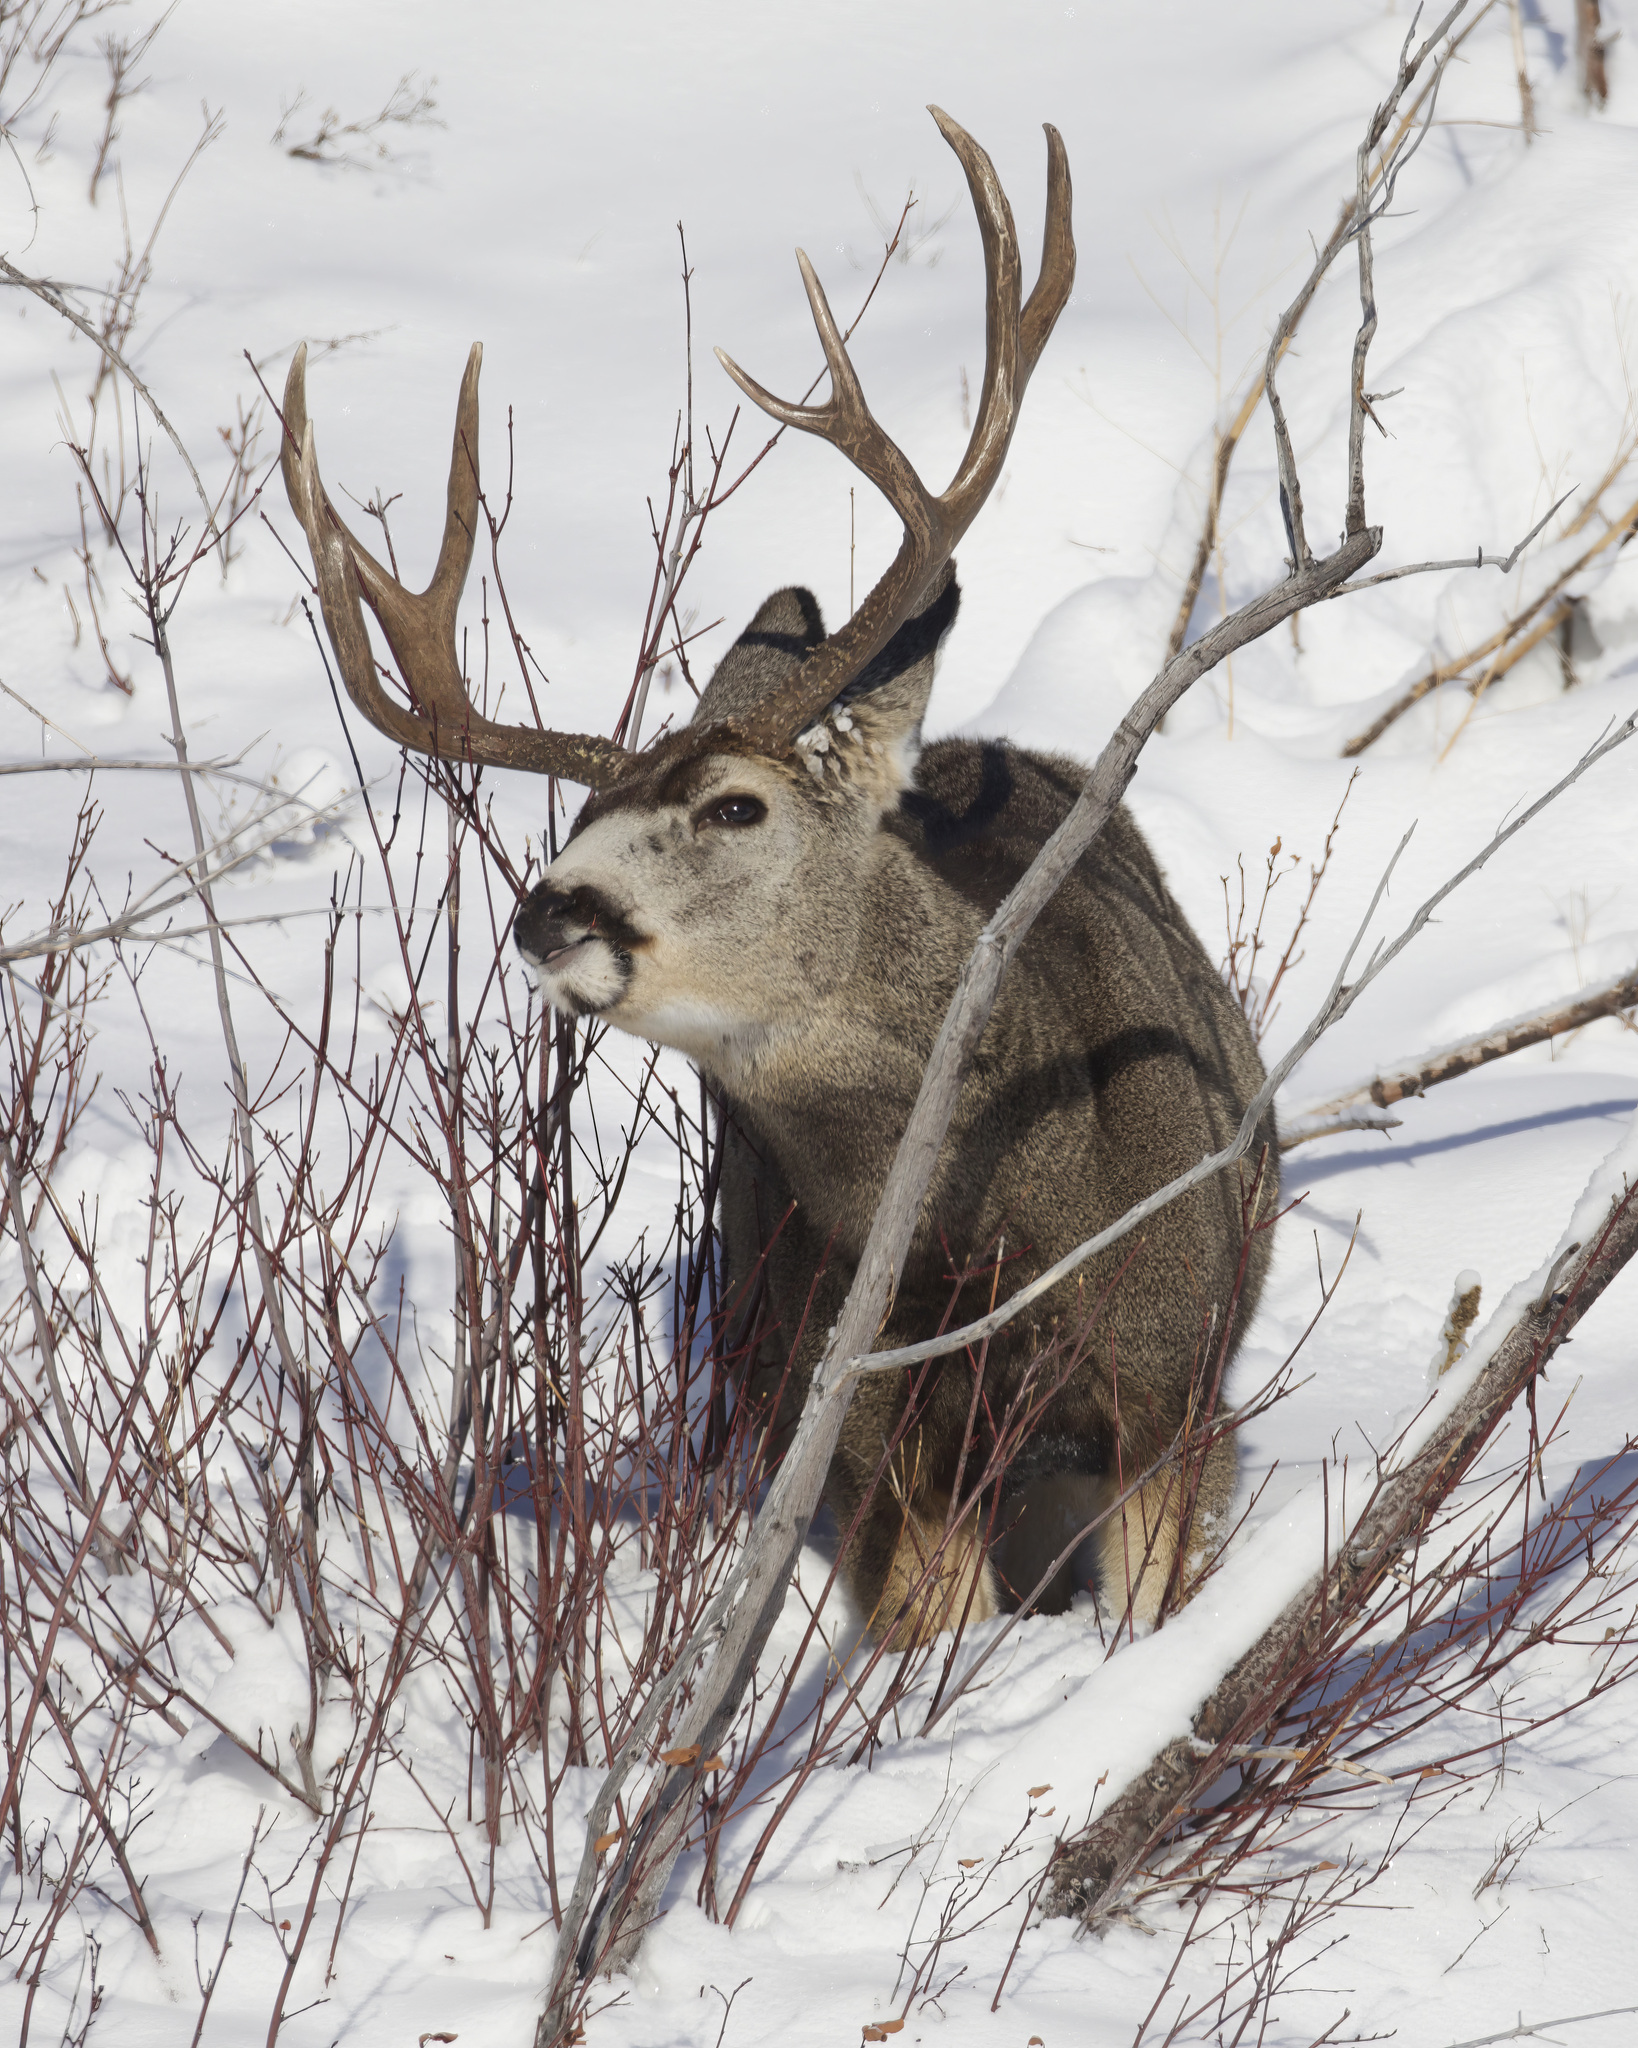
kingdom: Animalia
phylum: Chordata
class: Mammalia
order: Artiodactyla
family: Cervidae
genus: Odocoileus
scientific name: Odocoileus hemionus
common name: Mule deer
